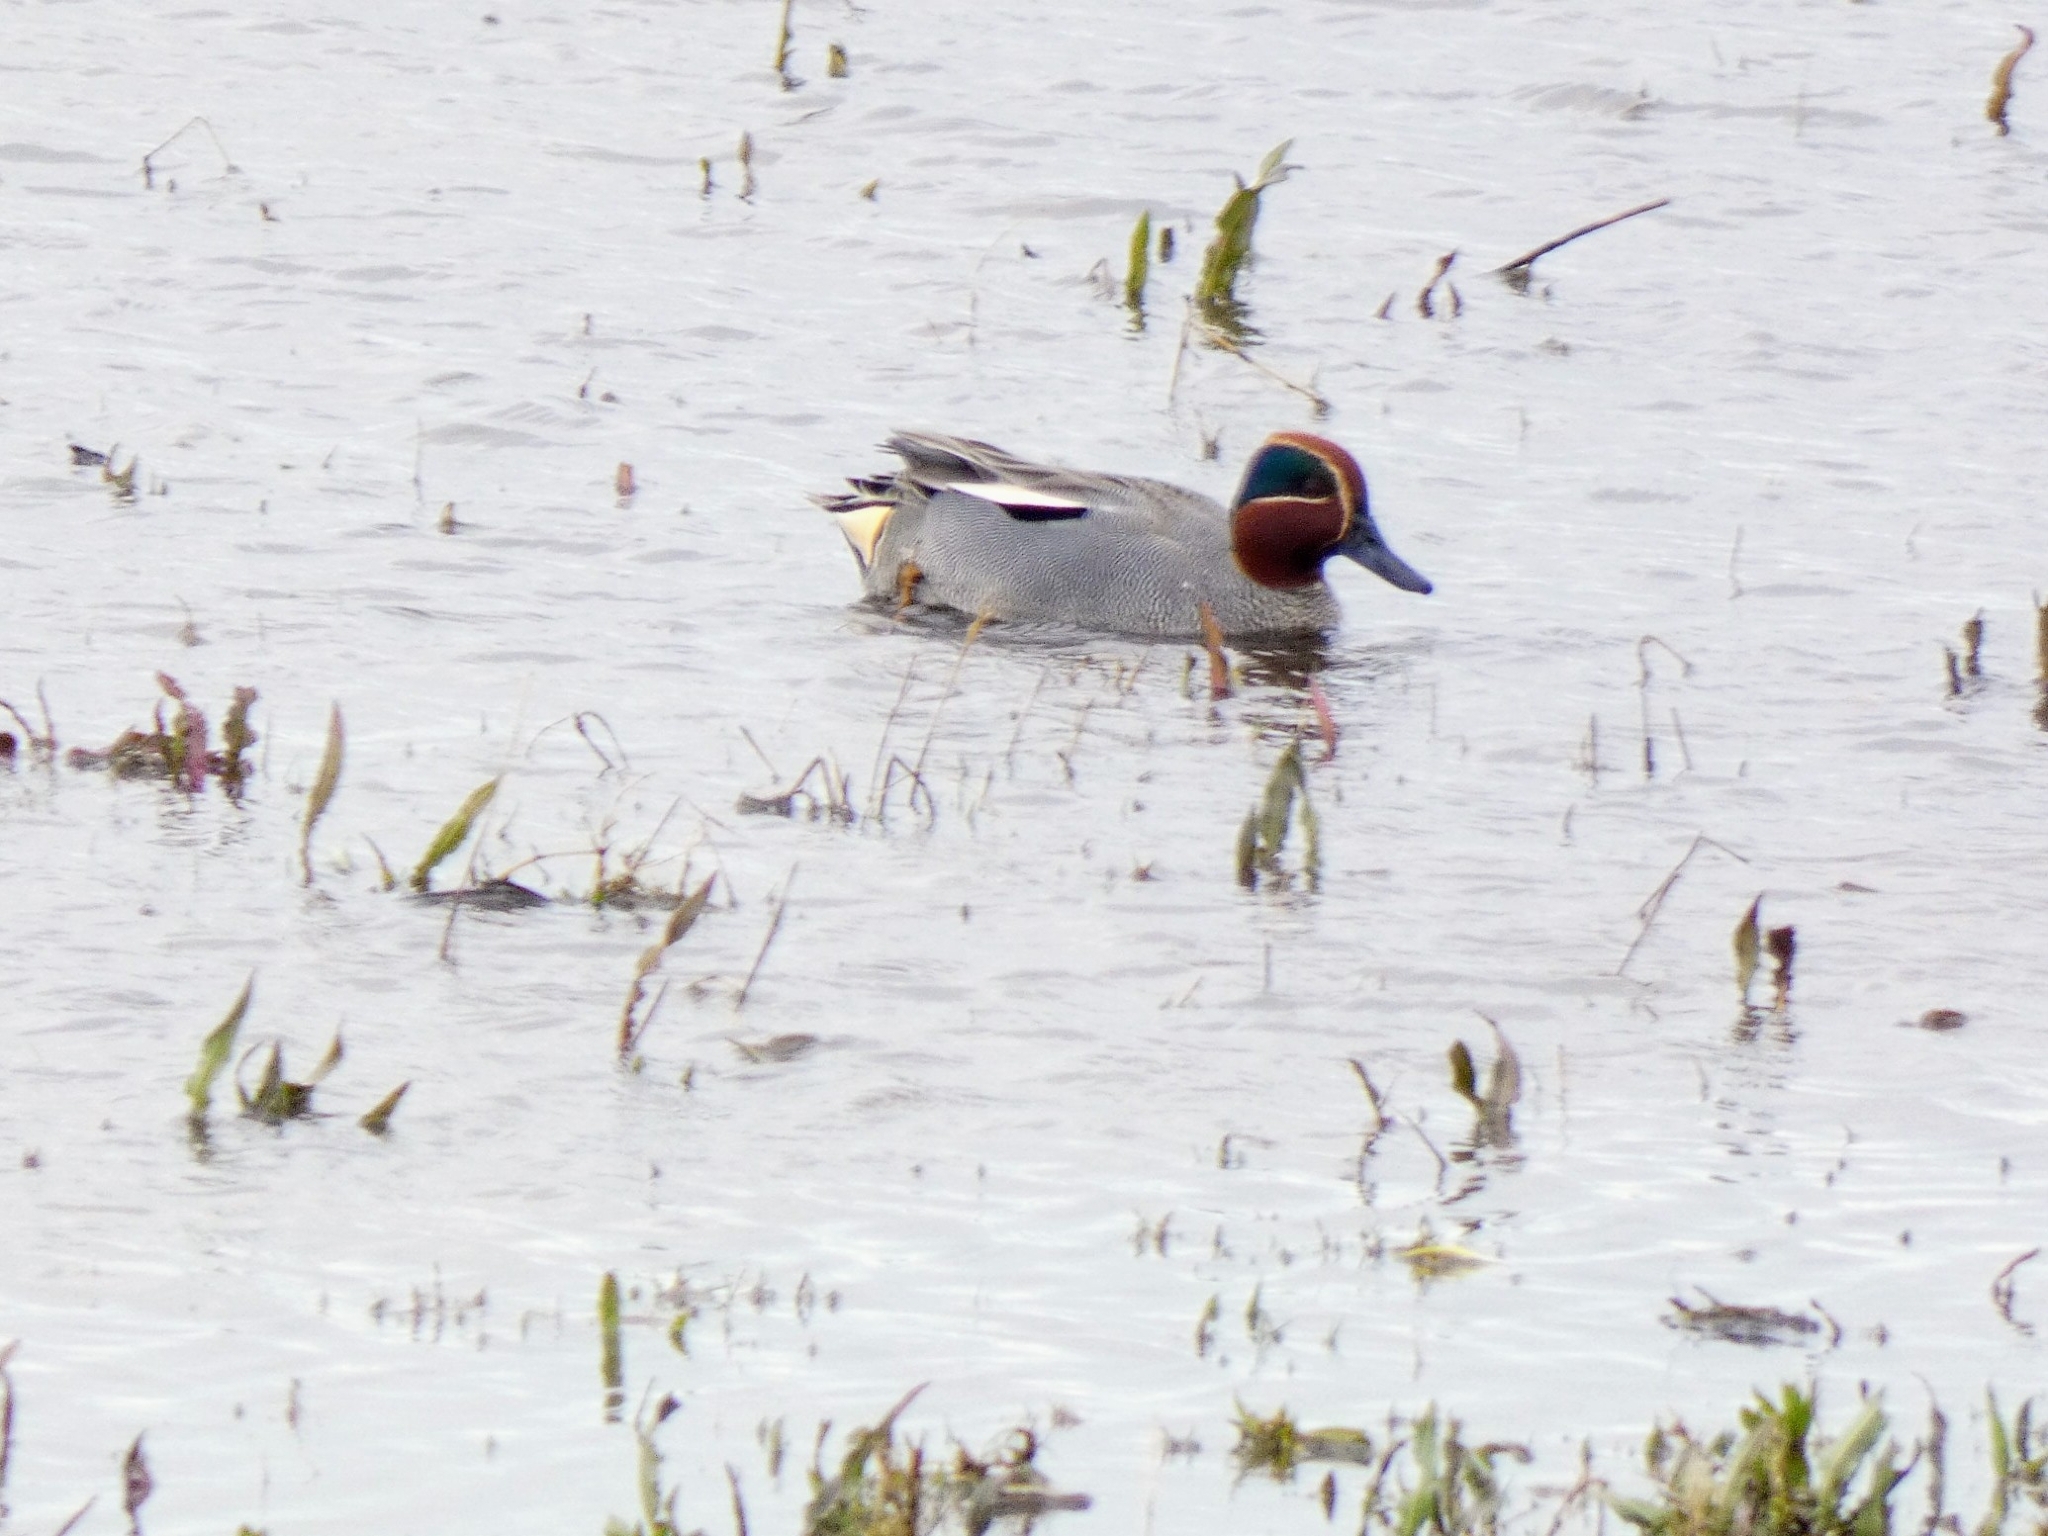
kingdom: Animalia
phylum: Chordata
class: Aves
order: Anseriformes
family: Anatidae
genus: Anas
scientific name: Anas crecca
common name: Eurasian teal
